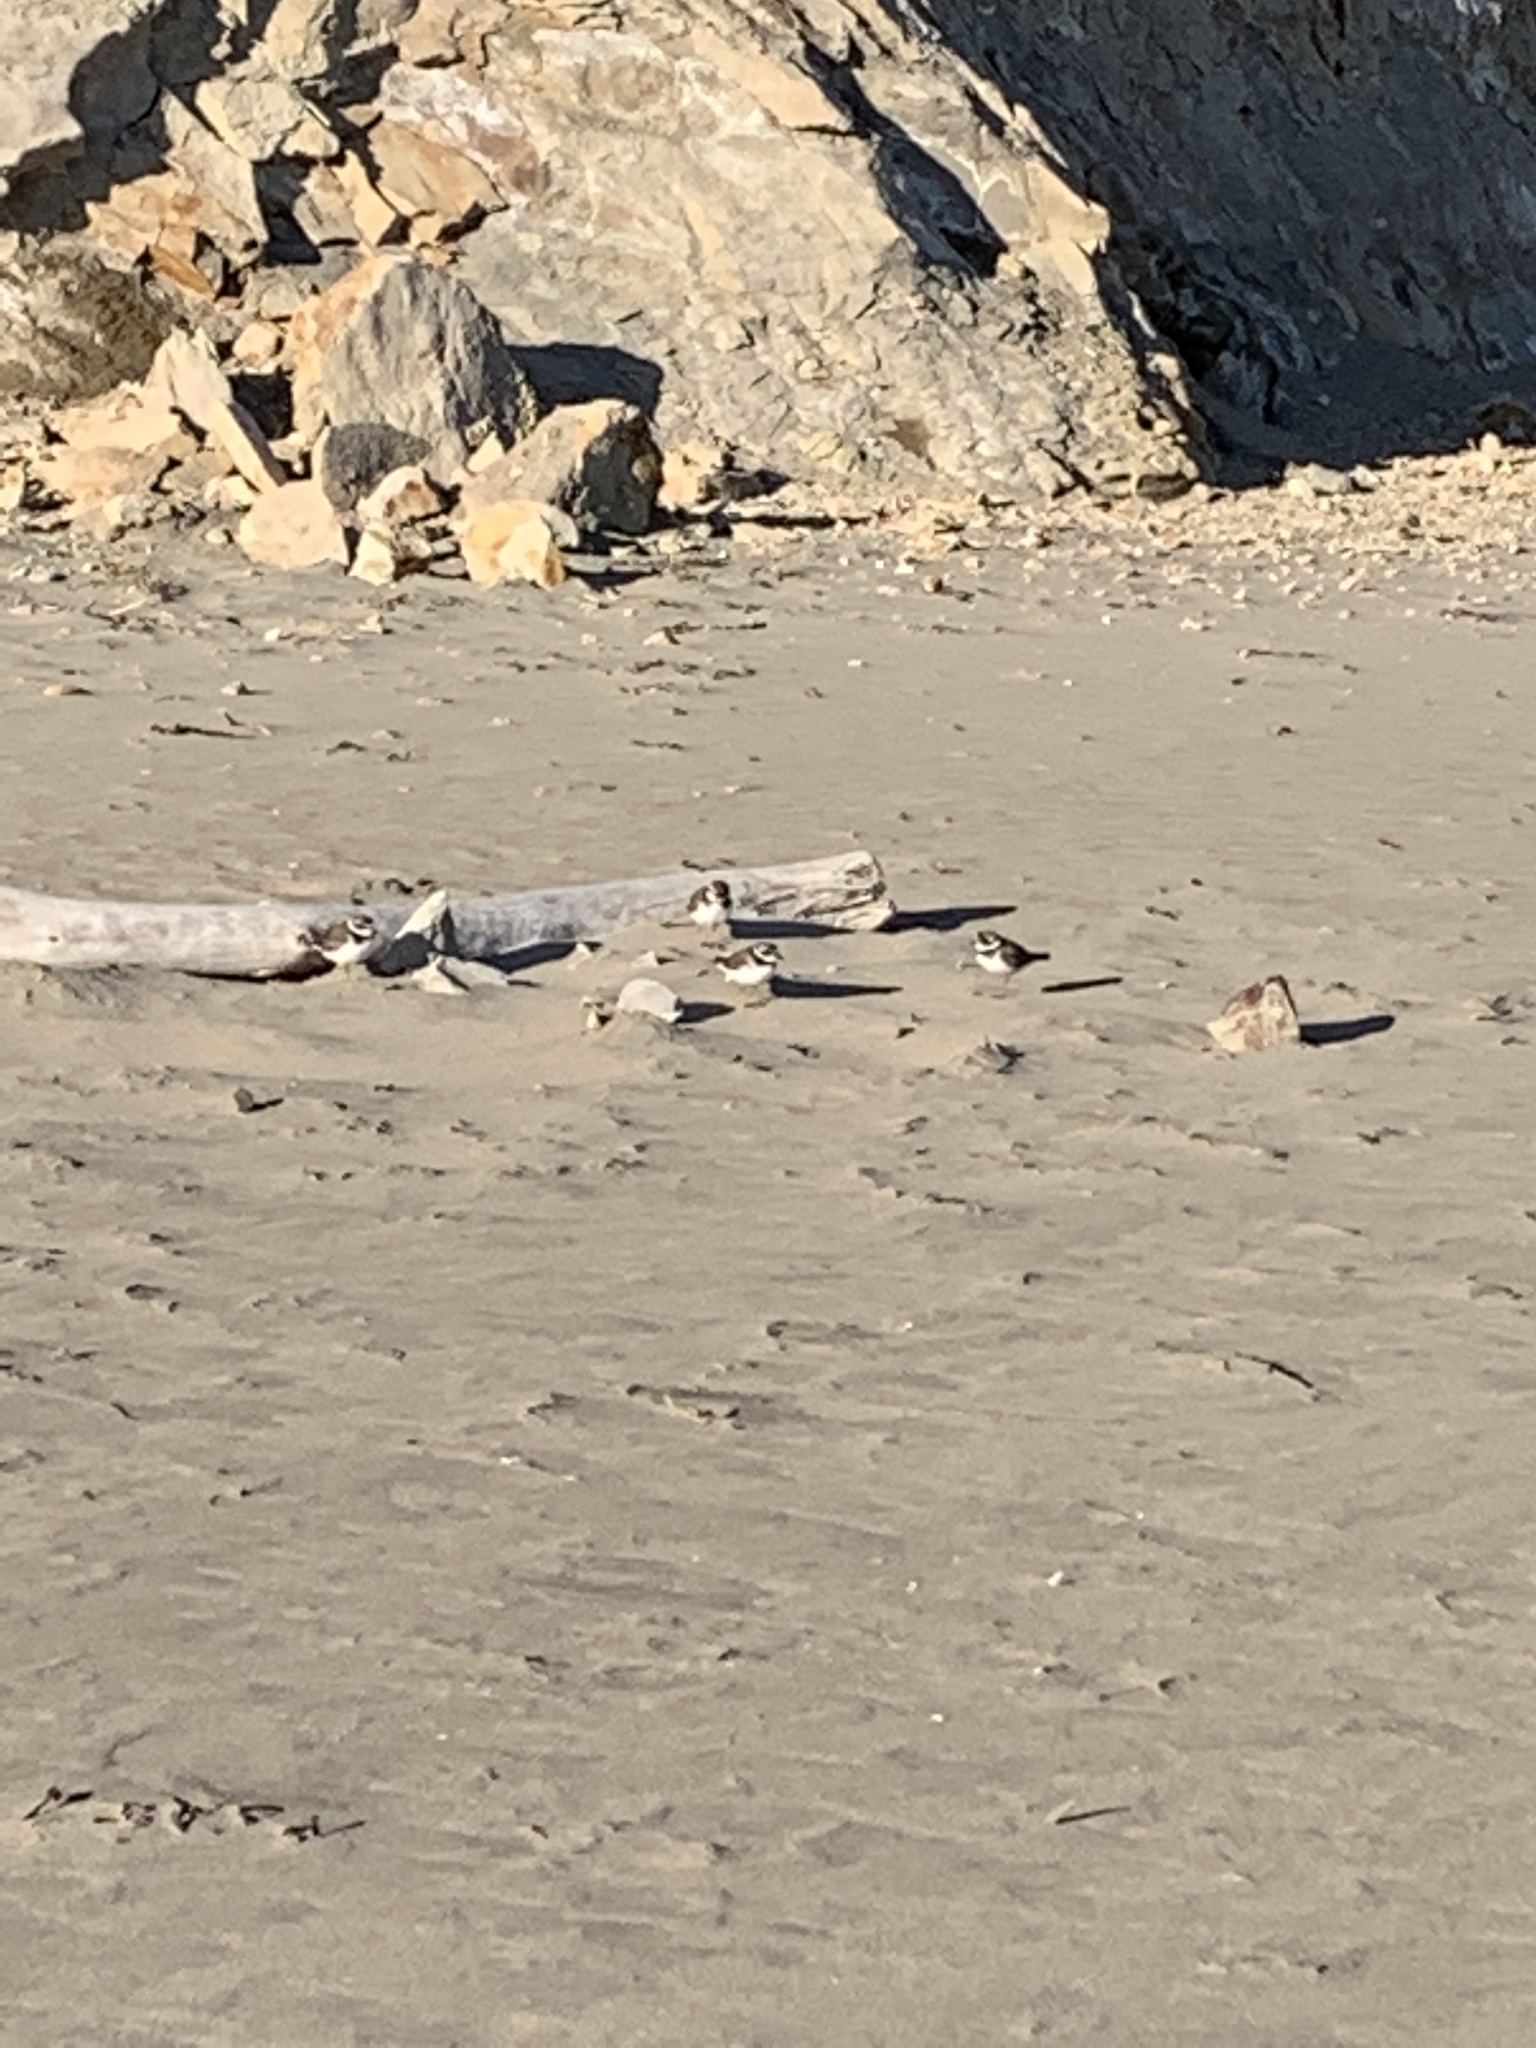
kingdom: Animalia
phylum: Chordata
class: Aves
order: Charadriiformes
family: Charadriidae
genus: Charadrius
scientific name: Charadrius semipalmatus
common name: Semipalmated plover
